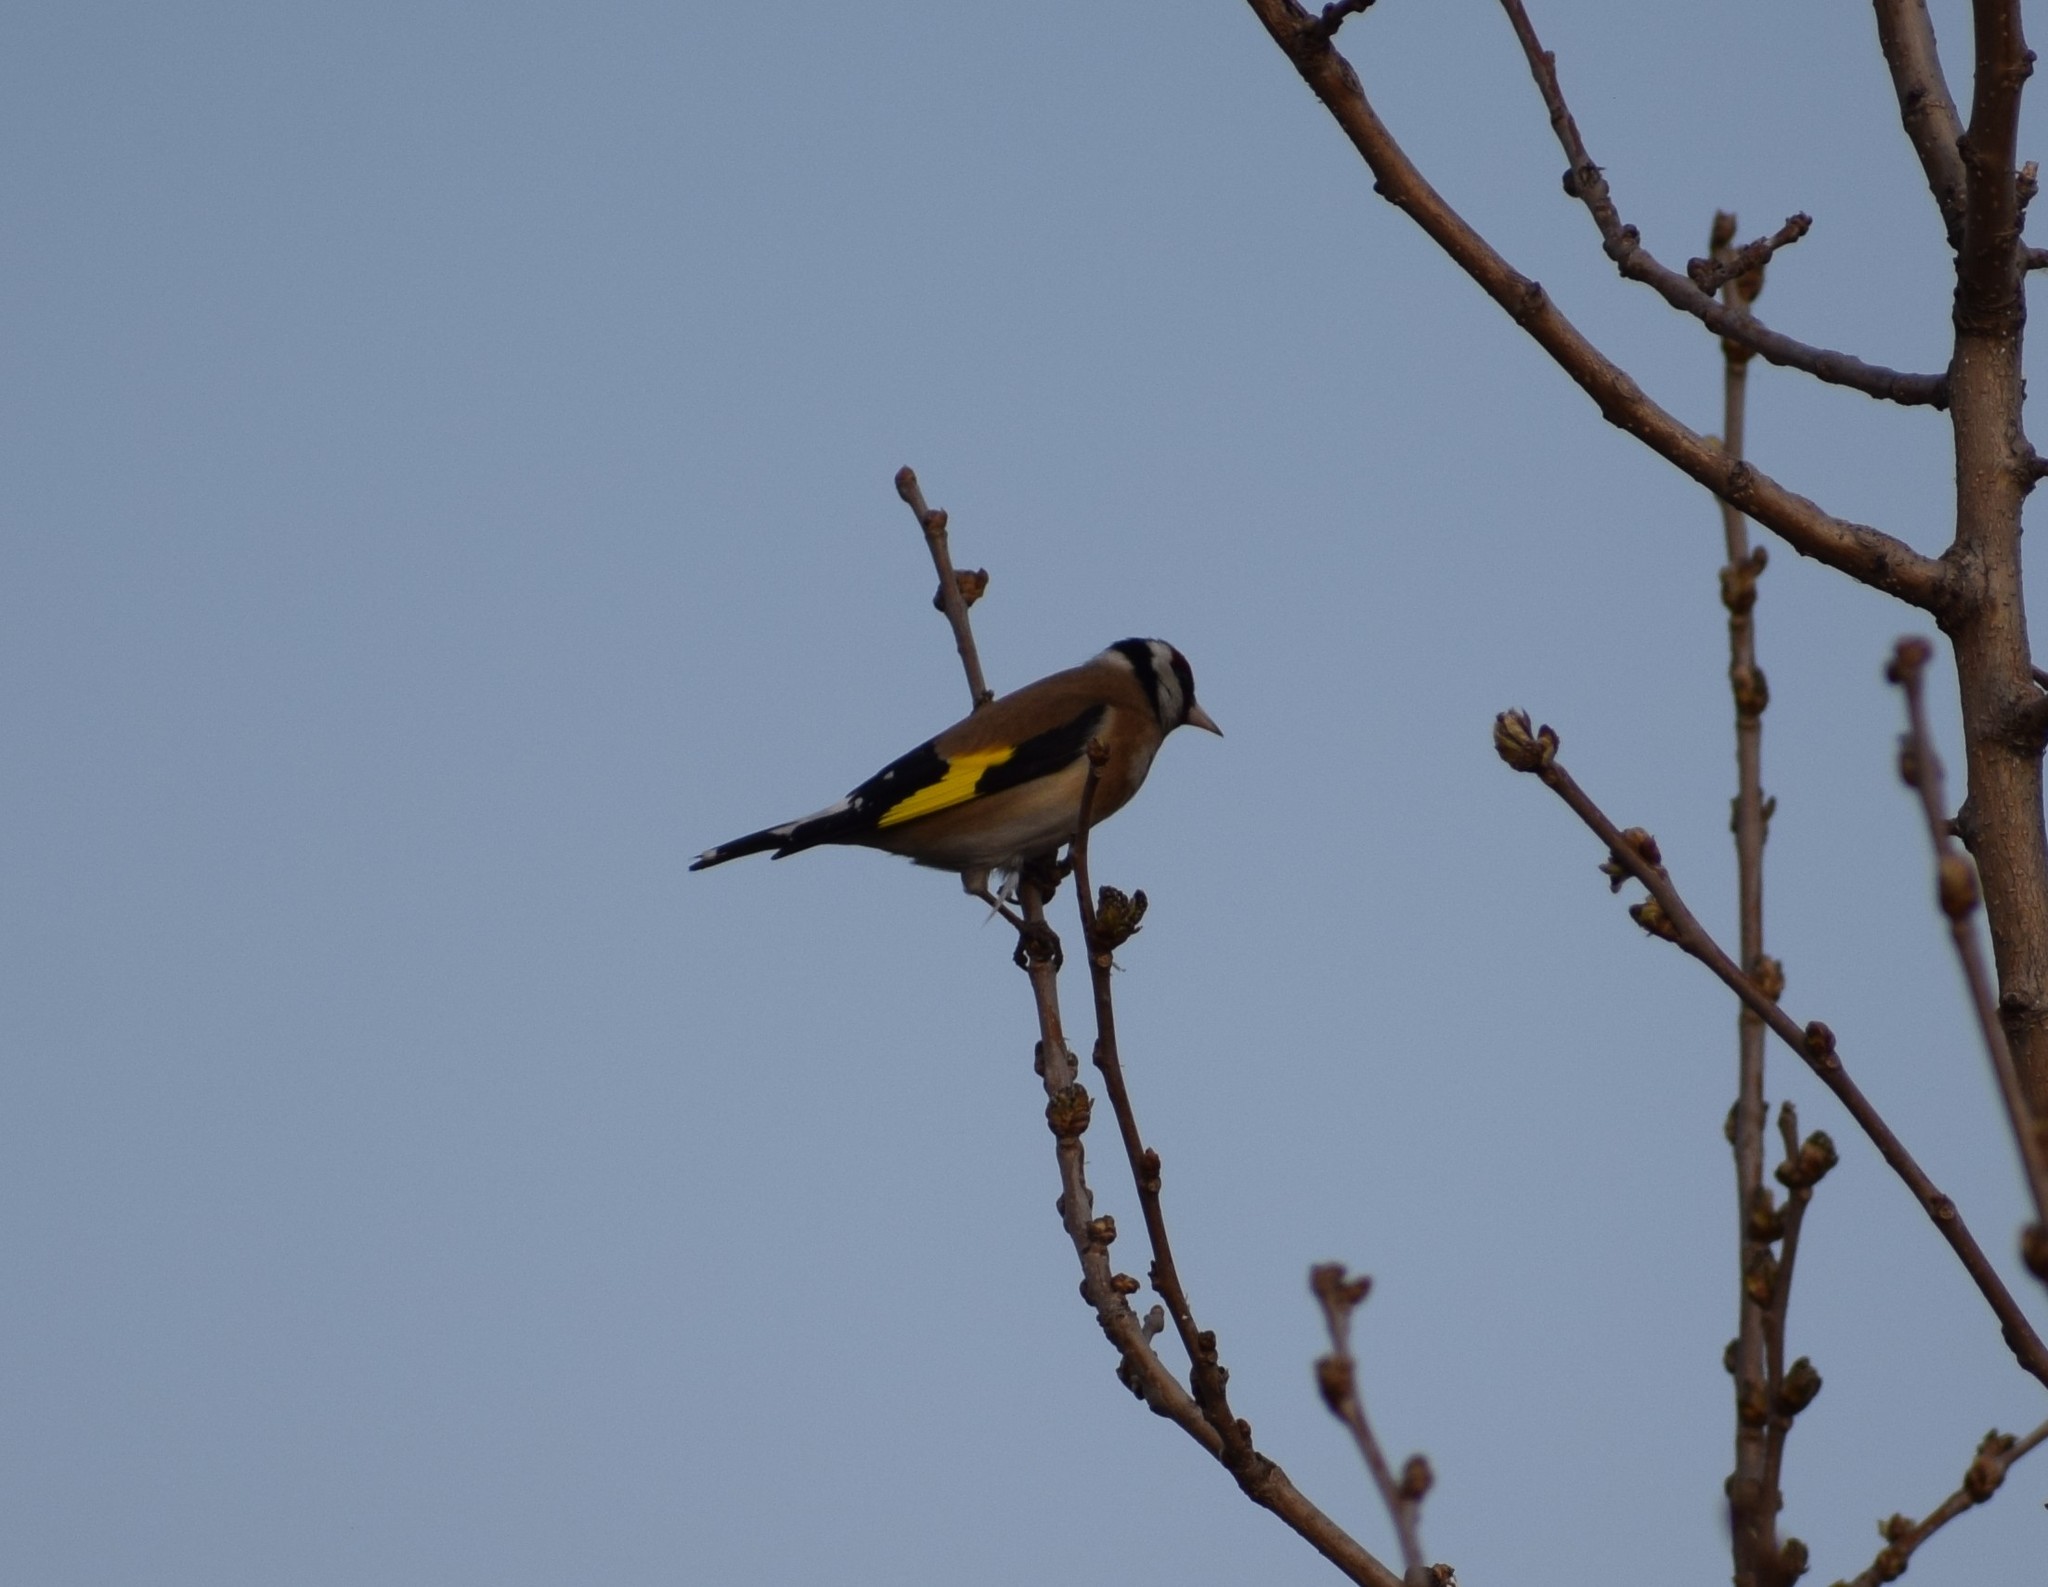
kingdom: Animalia
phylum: Chordata
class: Aves
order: Passeriformes
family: Fringillidae
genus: Carduelis
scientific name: Carduelis carduelis
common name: European goldfinch
